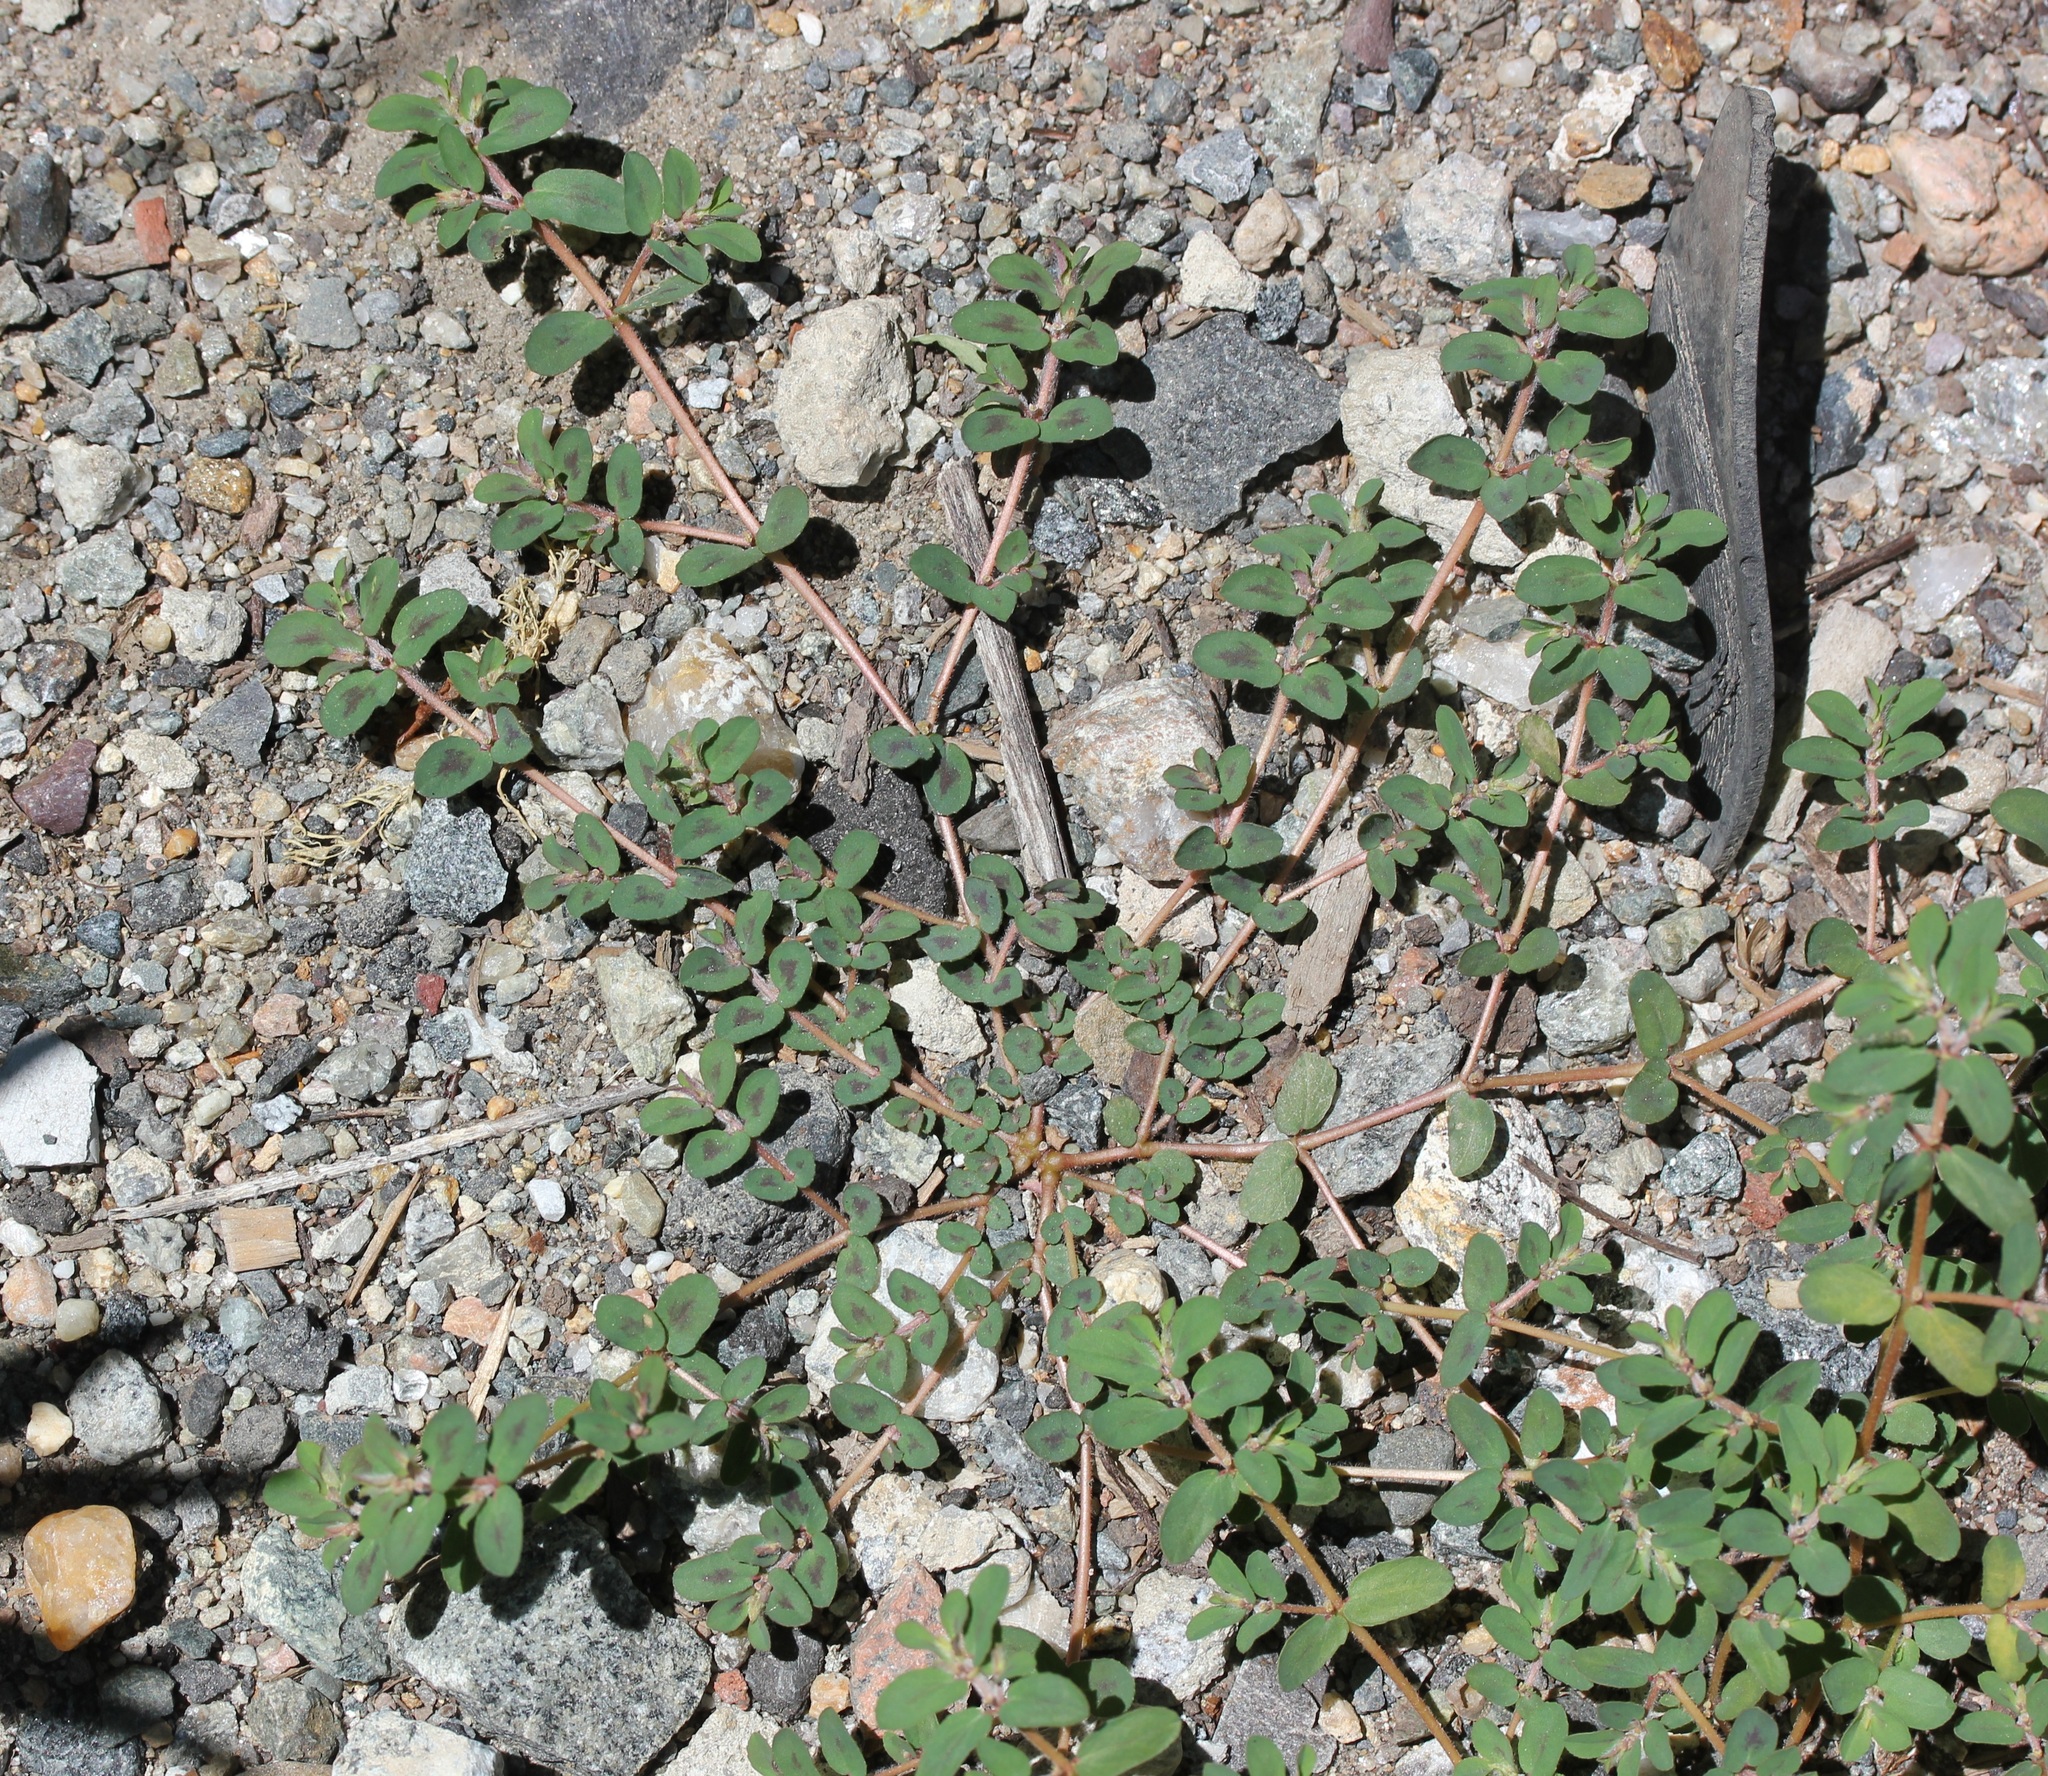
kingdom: Plantae
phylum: Tracheophyta
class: Magnoliopsida
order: Malpighiales
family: Euphorbiaceae
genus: Euphorbia
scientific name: Euphorbia maculata
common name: Spotted spurge
